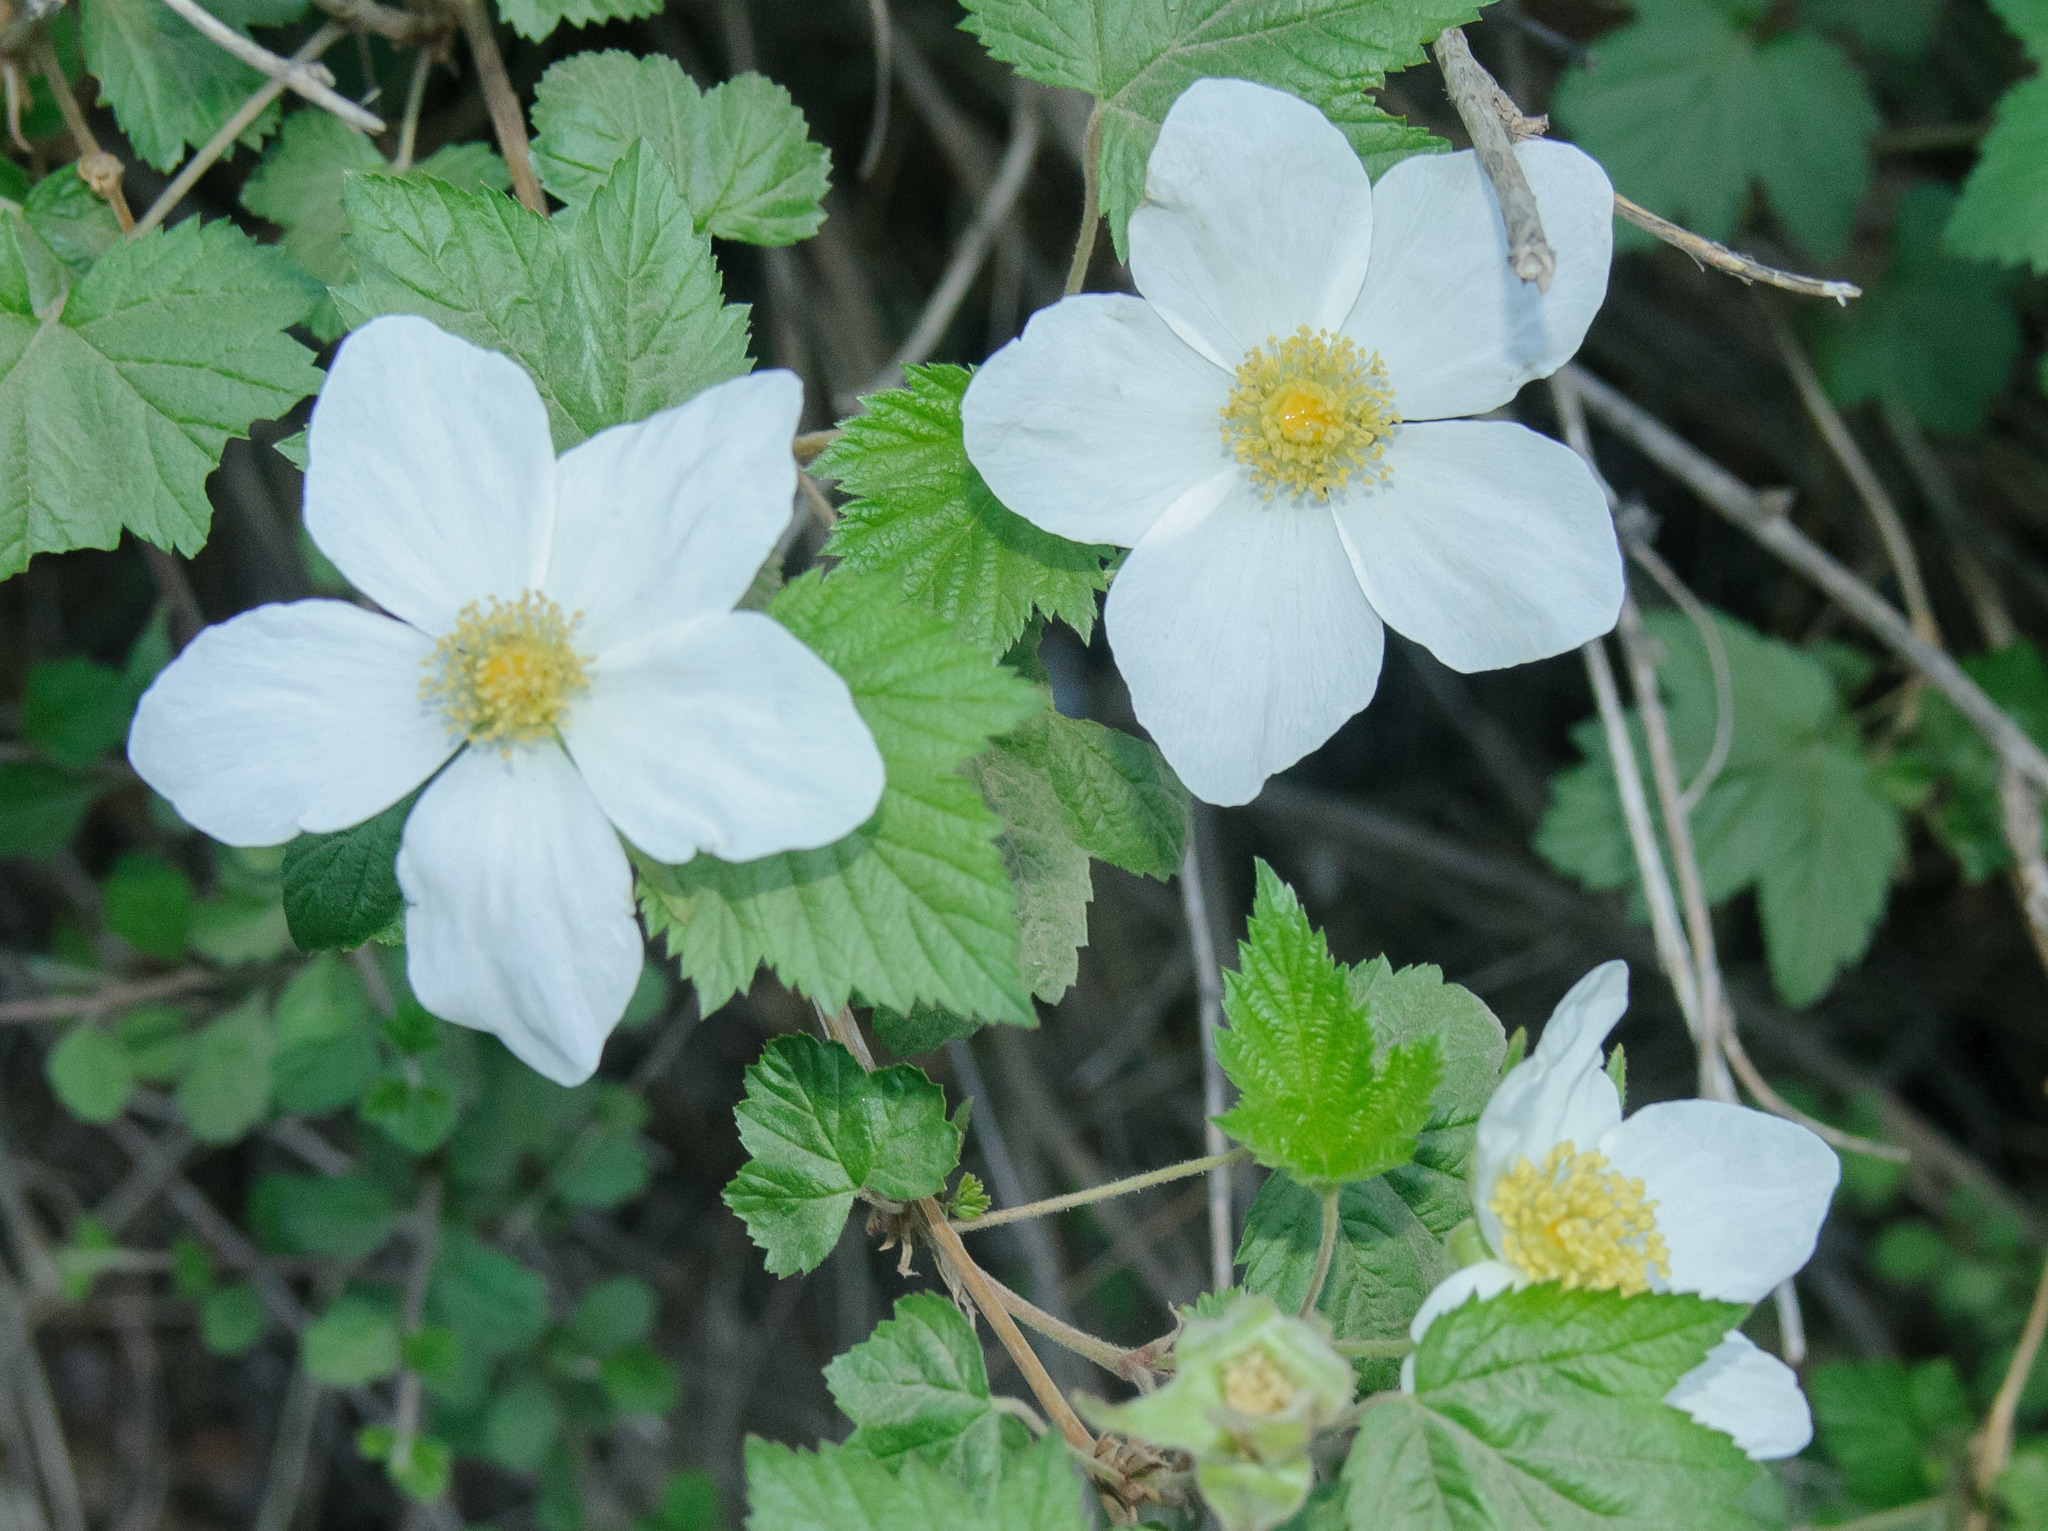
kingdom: Plantae
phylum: Tracheophyta
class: Magnoliopsida
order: Rosales
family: Rosaceae
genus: Rubus
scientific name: Rubus neomexicanus
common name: New mexico raspberry
